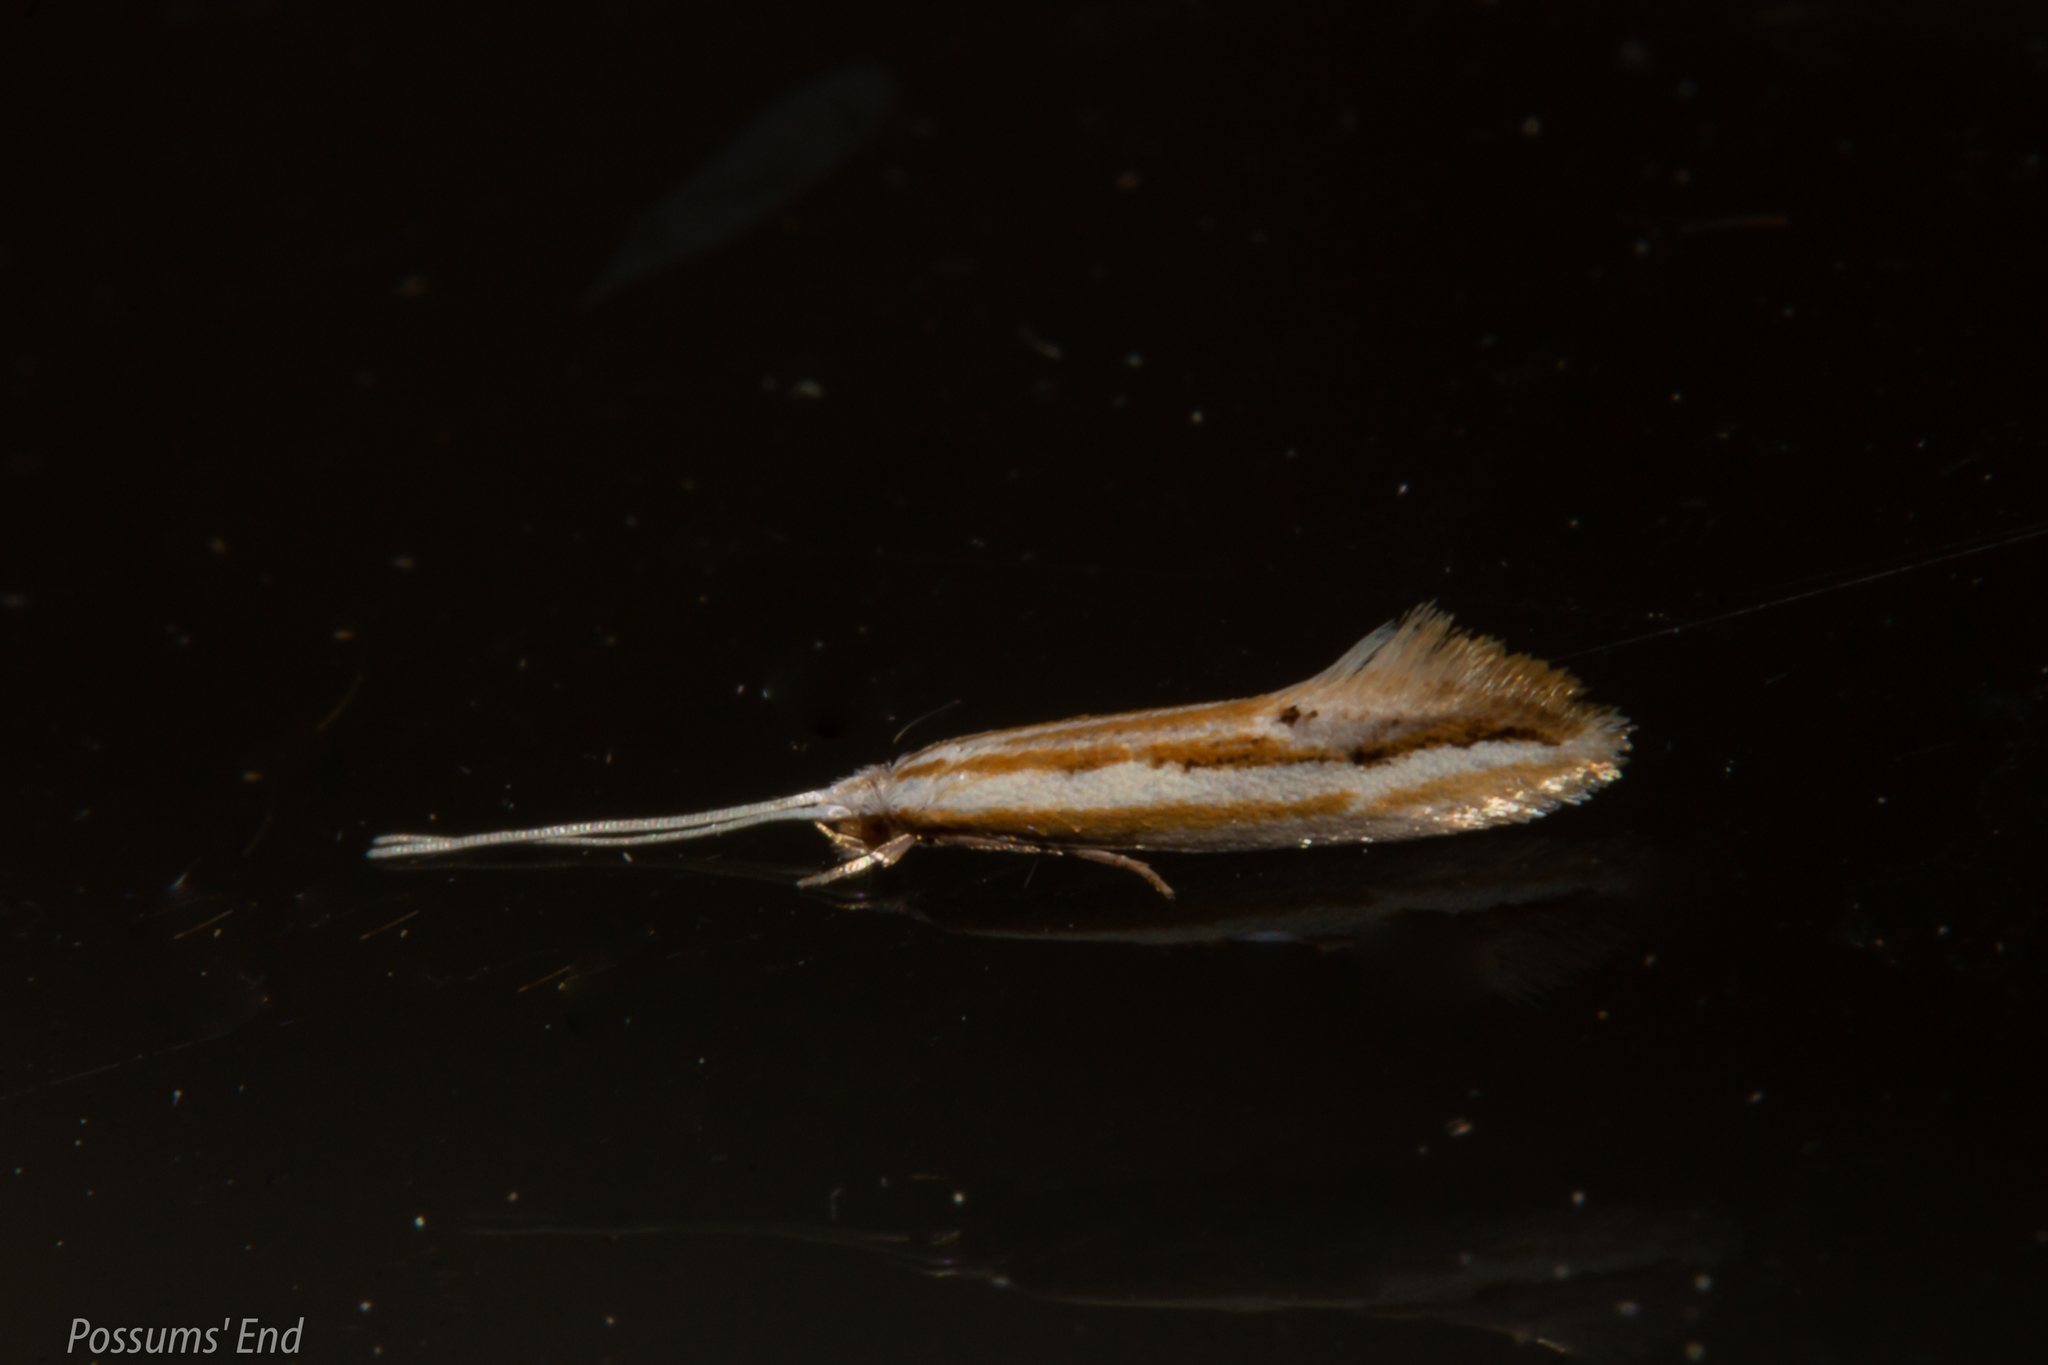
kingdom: Animalia
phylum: Arthropoda
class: Insecta
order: Lepidoptera
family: Tineidae
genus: Sagephora
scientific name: Sagephora exsanguis
